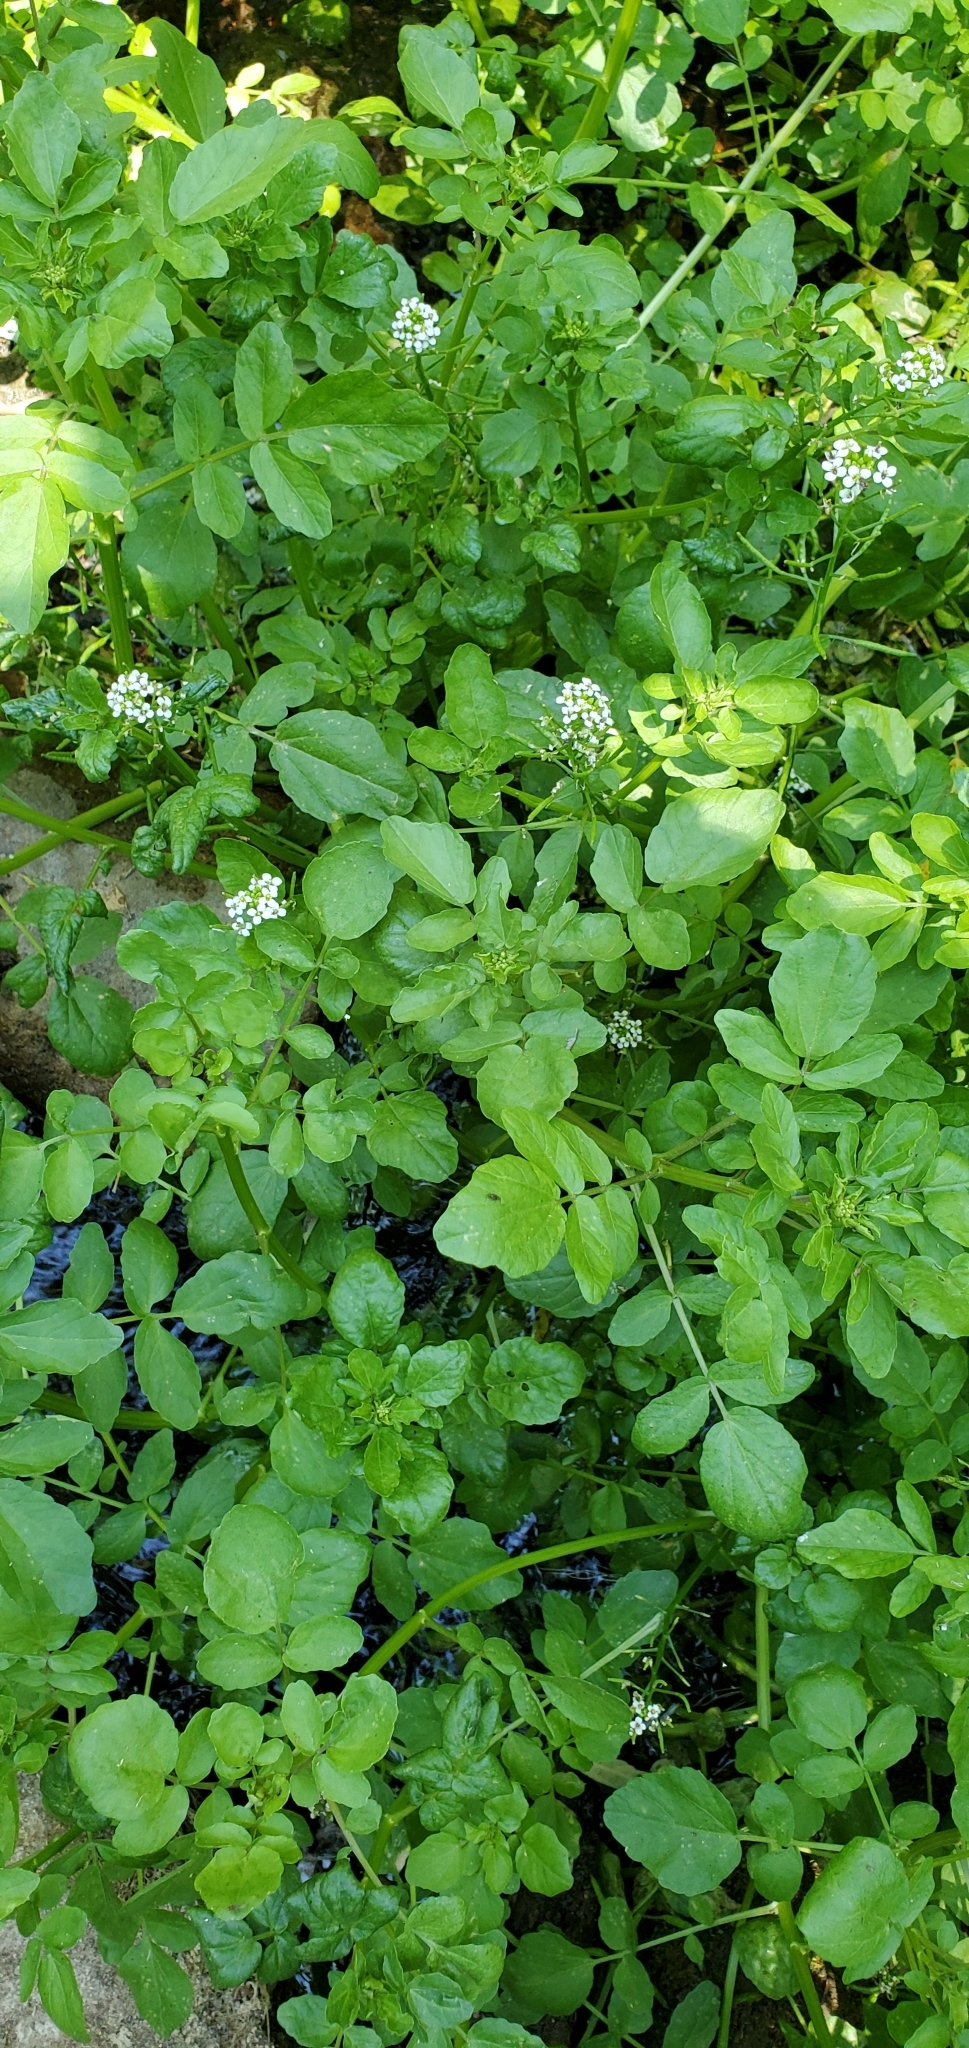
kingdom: Plantae
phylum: Tracheophyta
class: Magnoliopsida
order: Brassicales
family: Brassicaceae
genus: Nasturtium
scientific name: Nasturtium officinale
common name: Watercress
